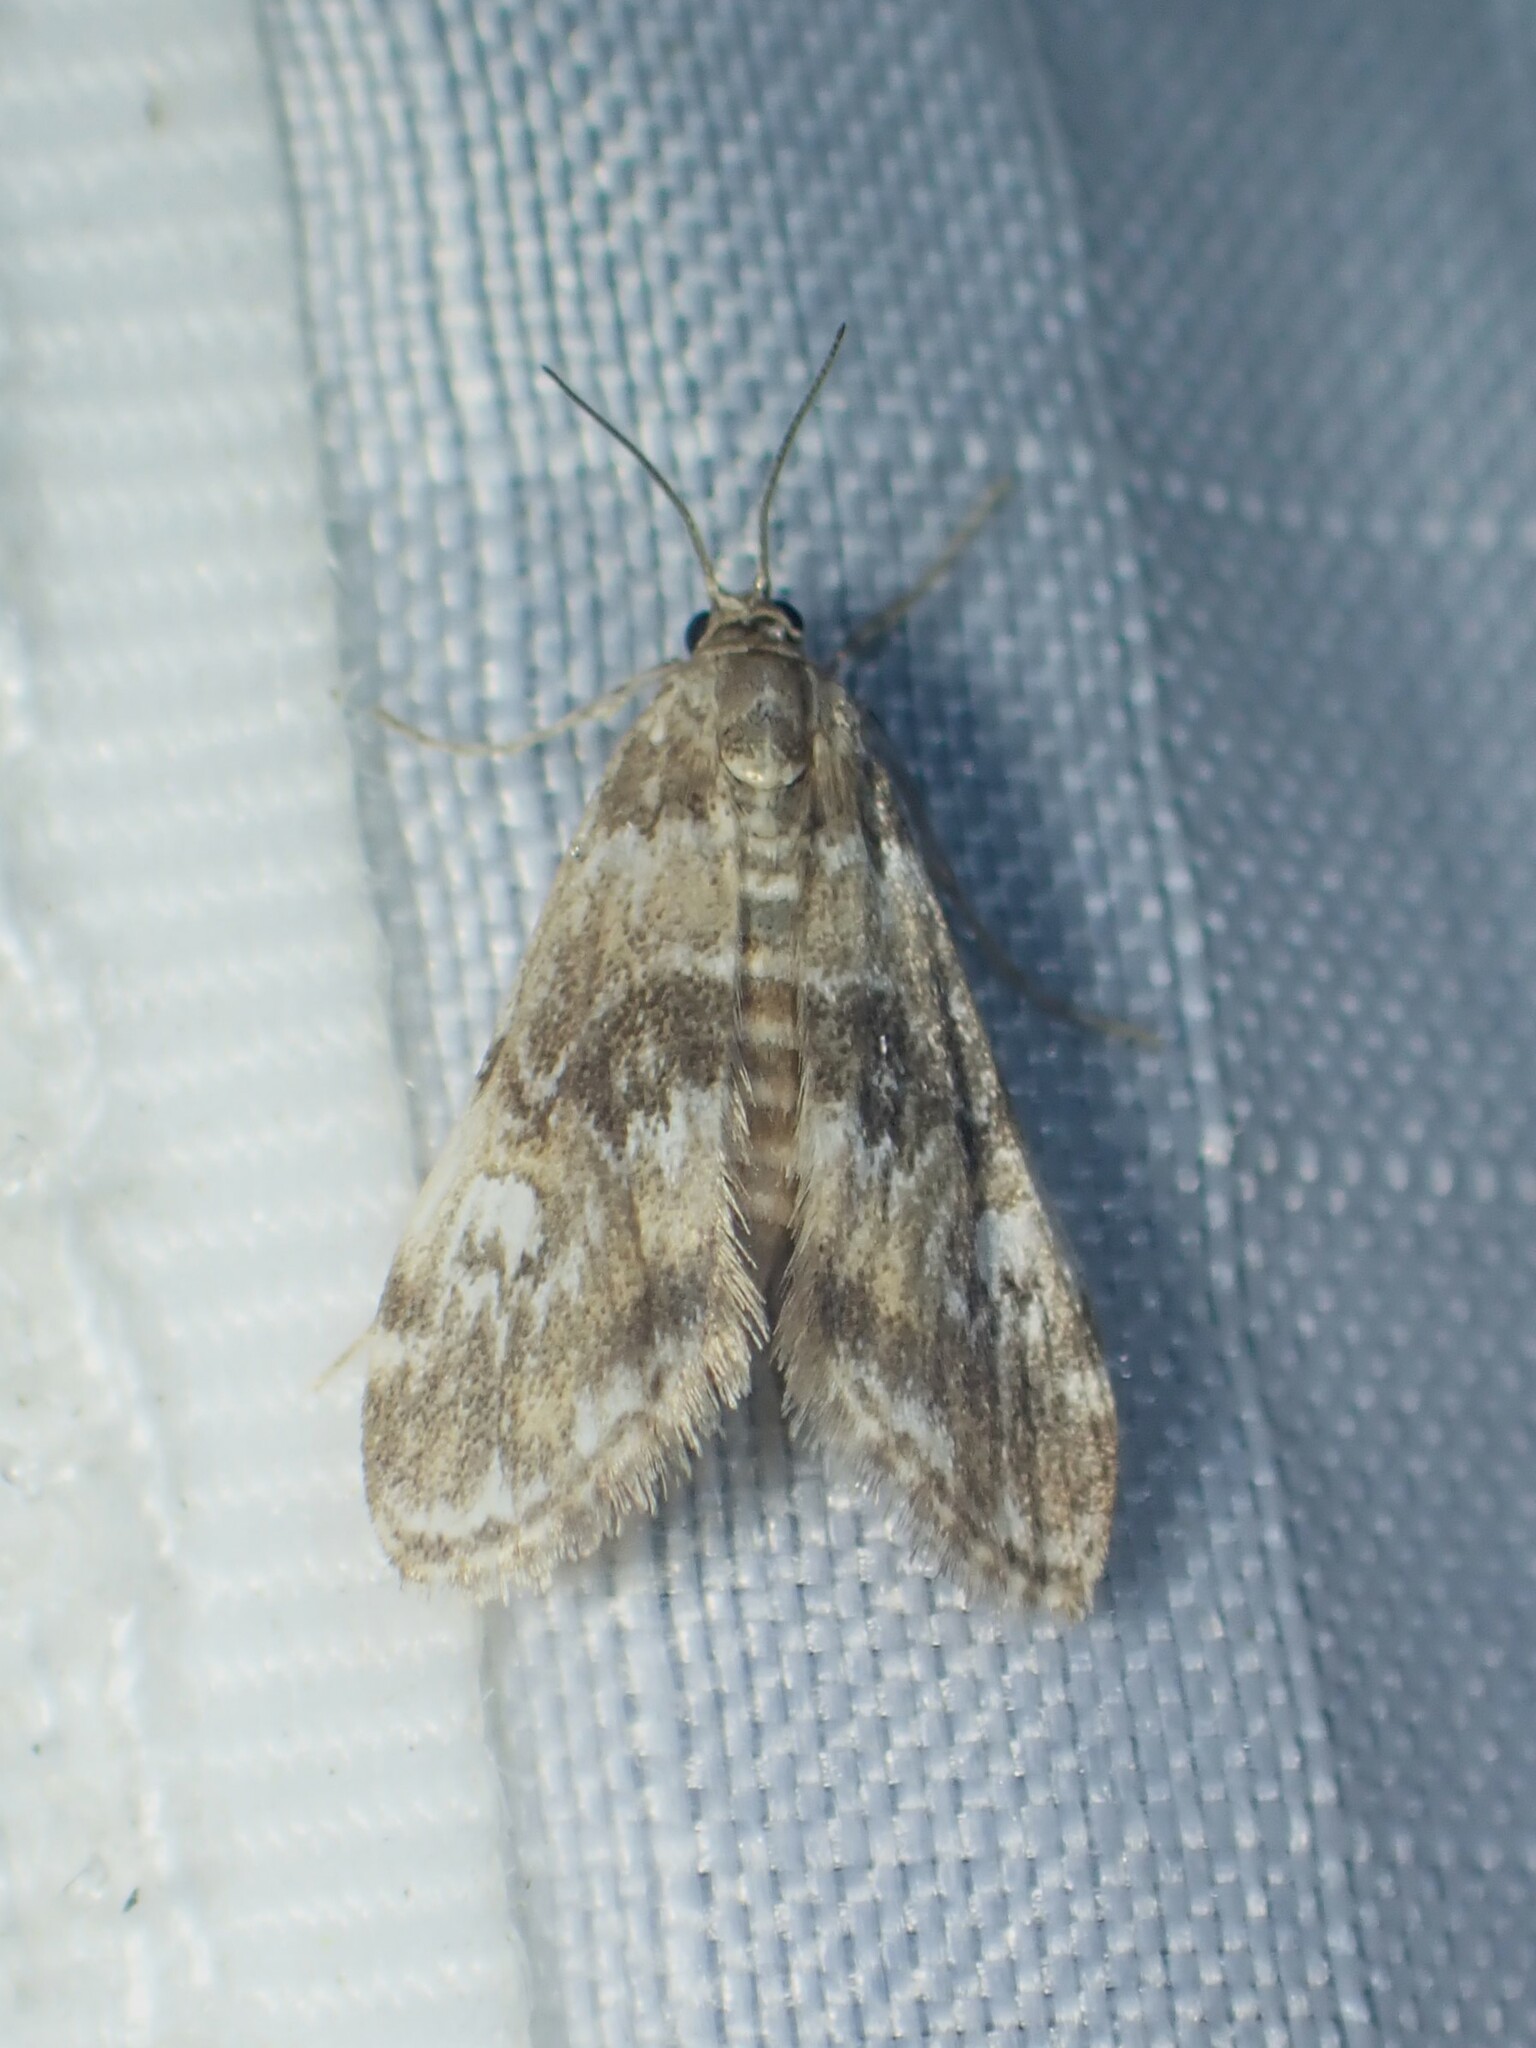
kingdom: Animalia
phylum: Arthropoda
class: Insecta
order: Lepidoptera
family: Crambidae
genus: Elophila
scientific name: Elophila obliteralis
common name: Waterlily leafcutter moth
